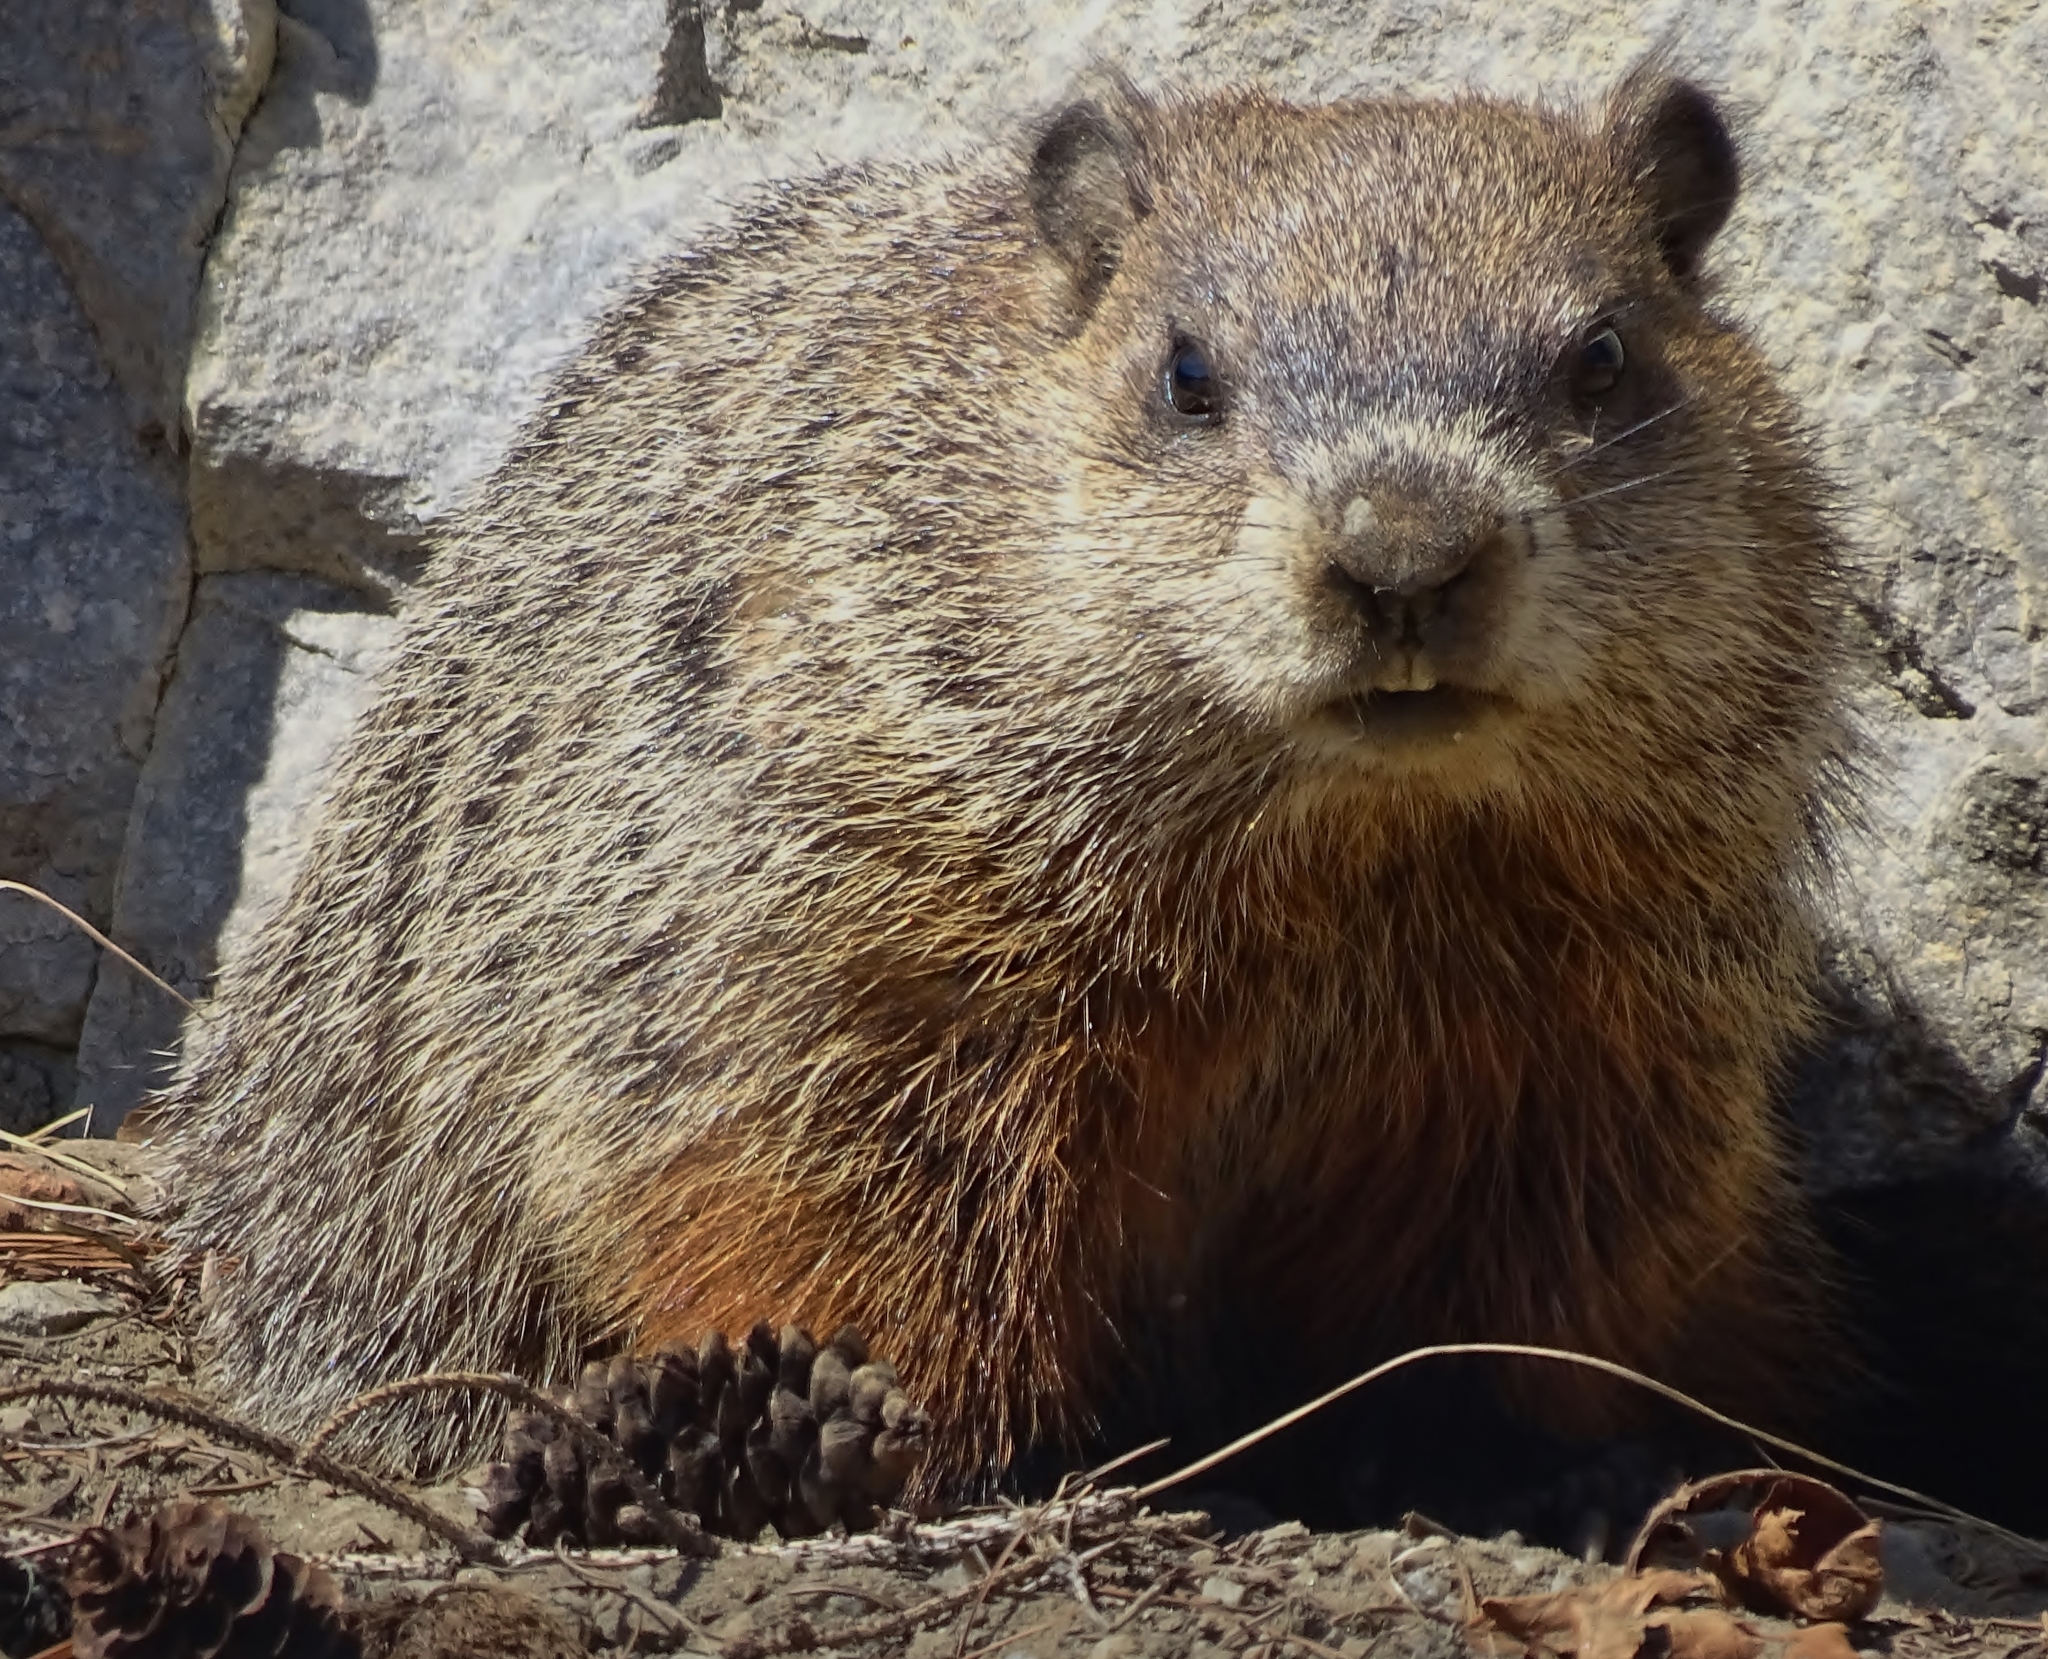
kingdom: Animalia
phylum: Chordata
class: Mammalia
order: Rodentia
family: Sciuridae
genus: Marmota
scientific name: Marmota monax
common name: Groundhog
